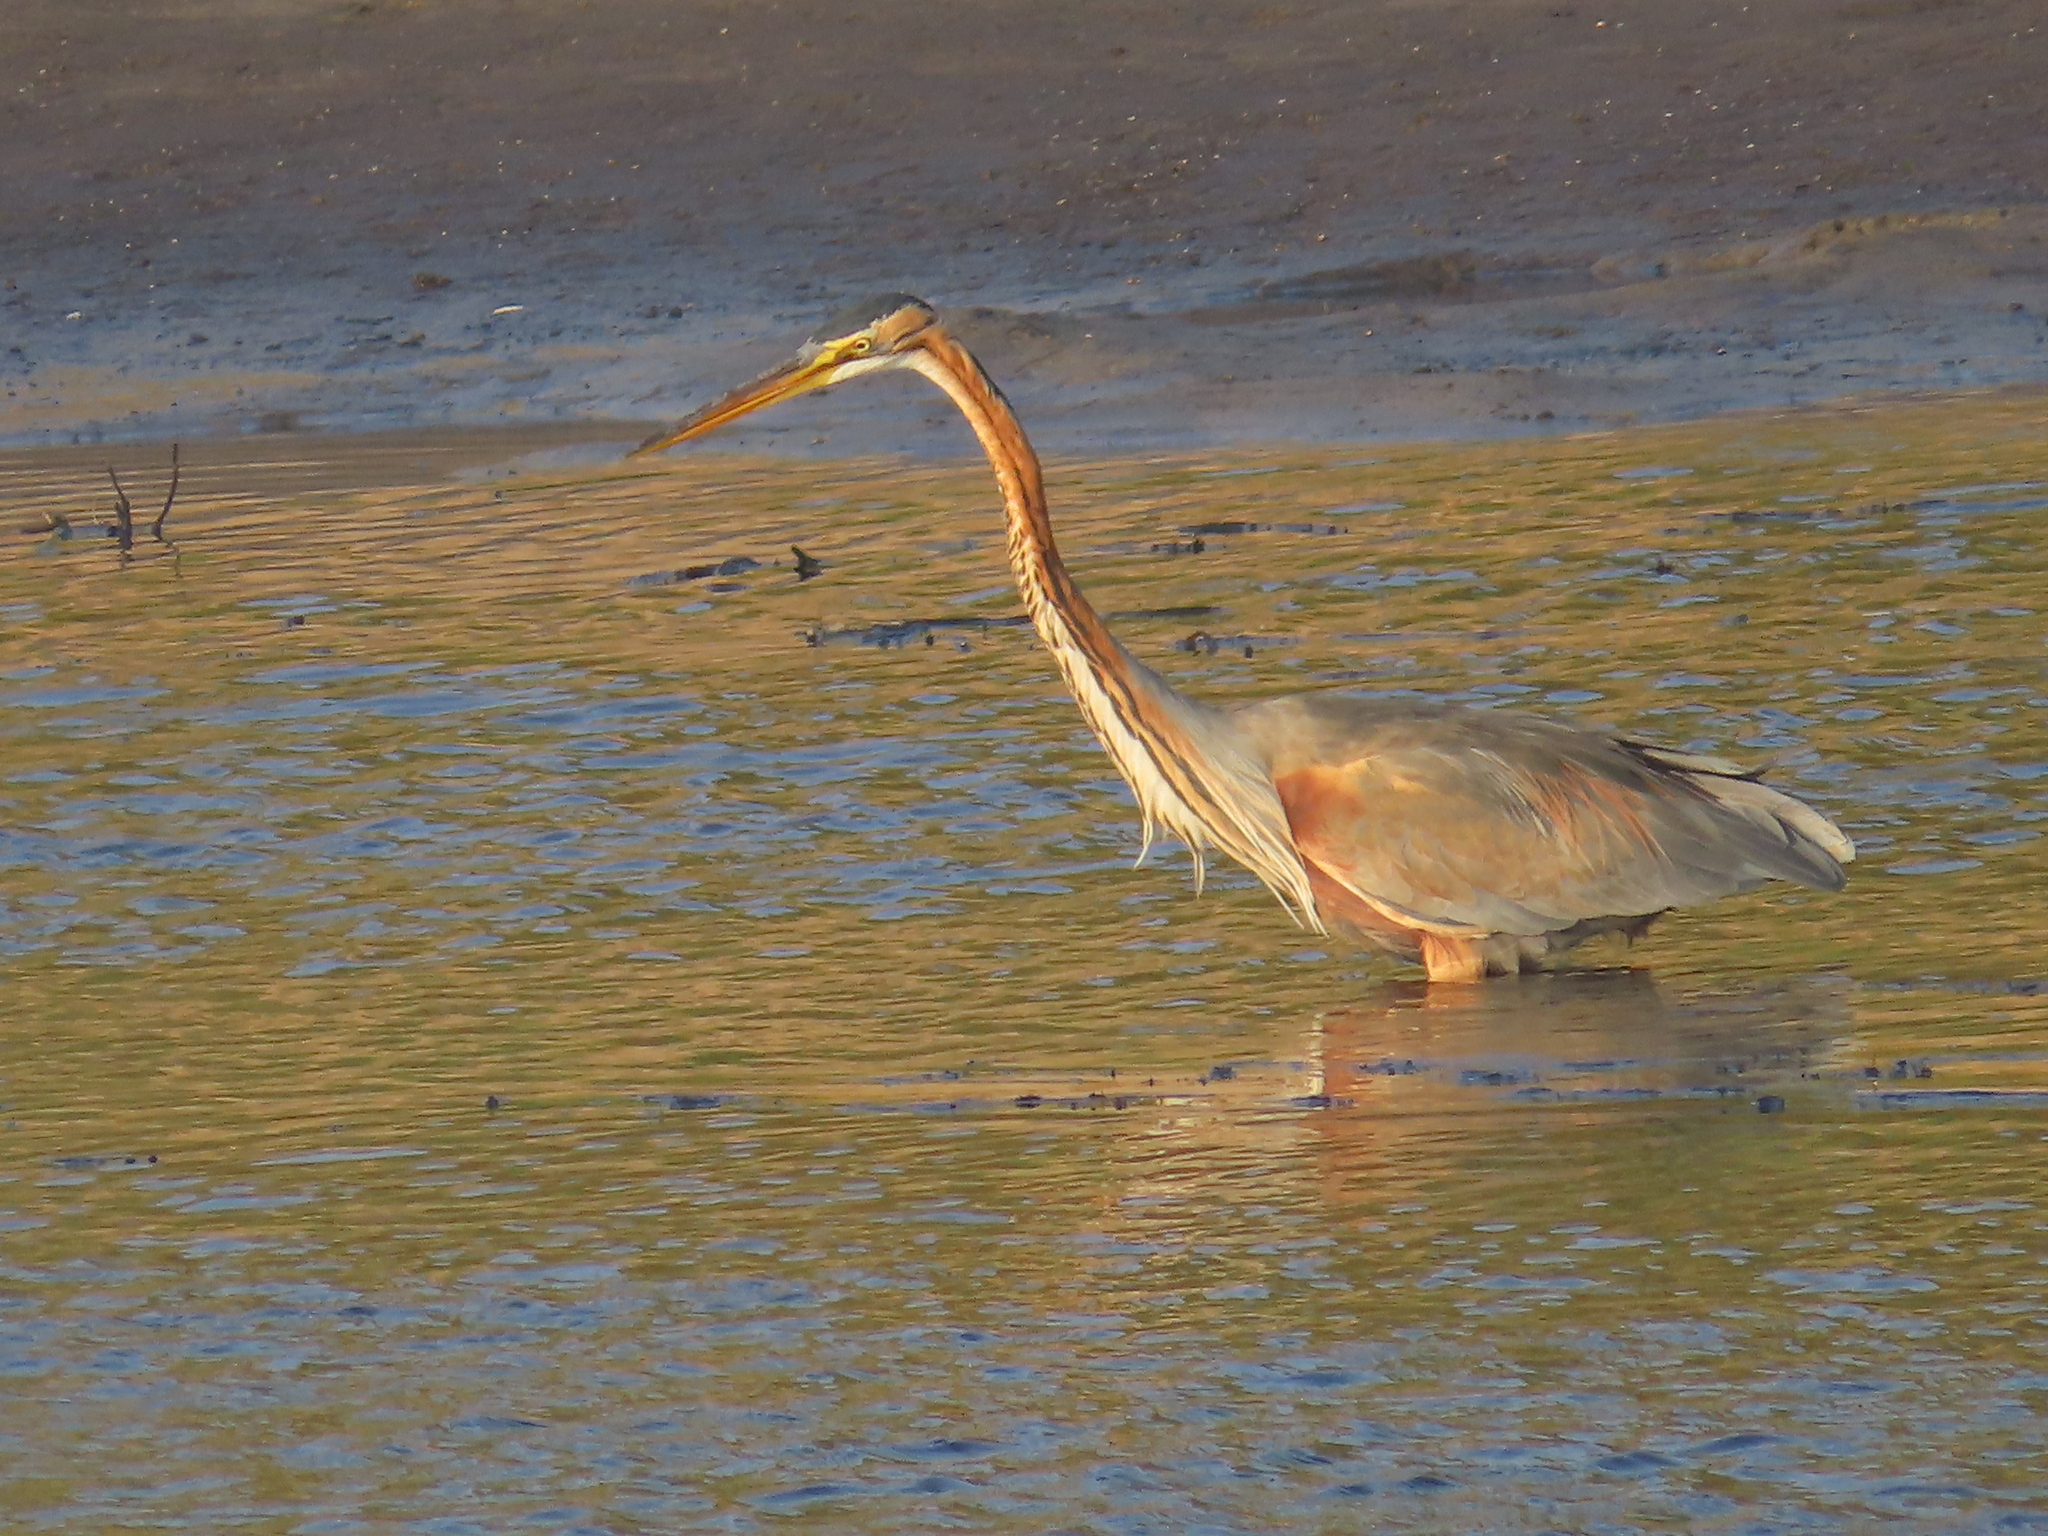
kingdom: Animalia
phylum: Chordata
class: Aves
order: Pelecaniformes
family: Ardeidae
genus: Ardea
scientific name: Ardea purpurea
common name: Purple heron
